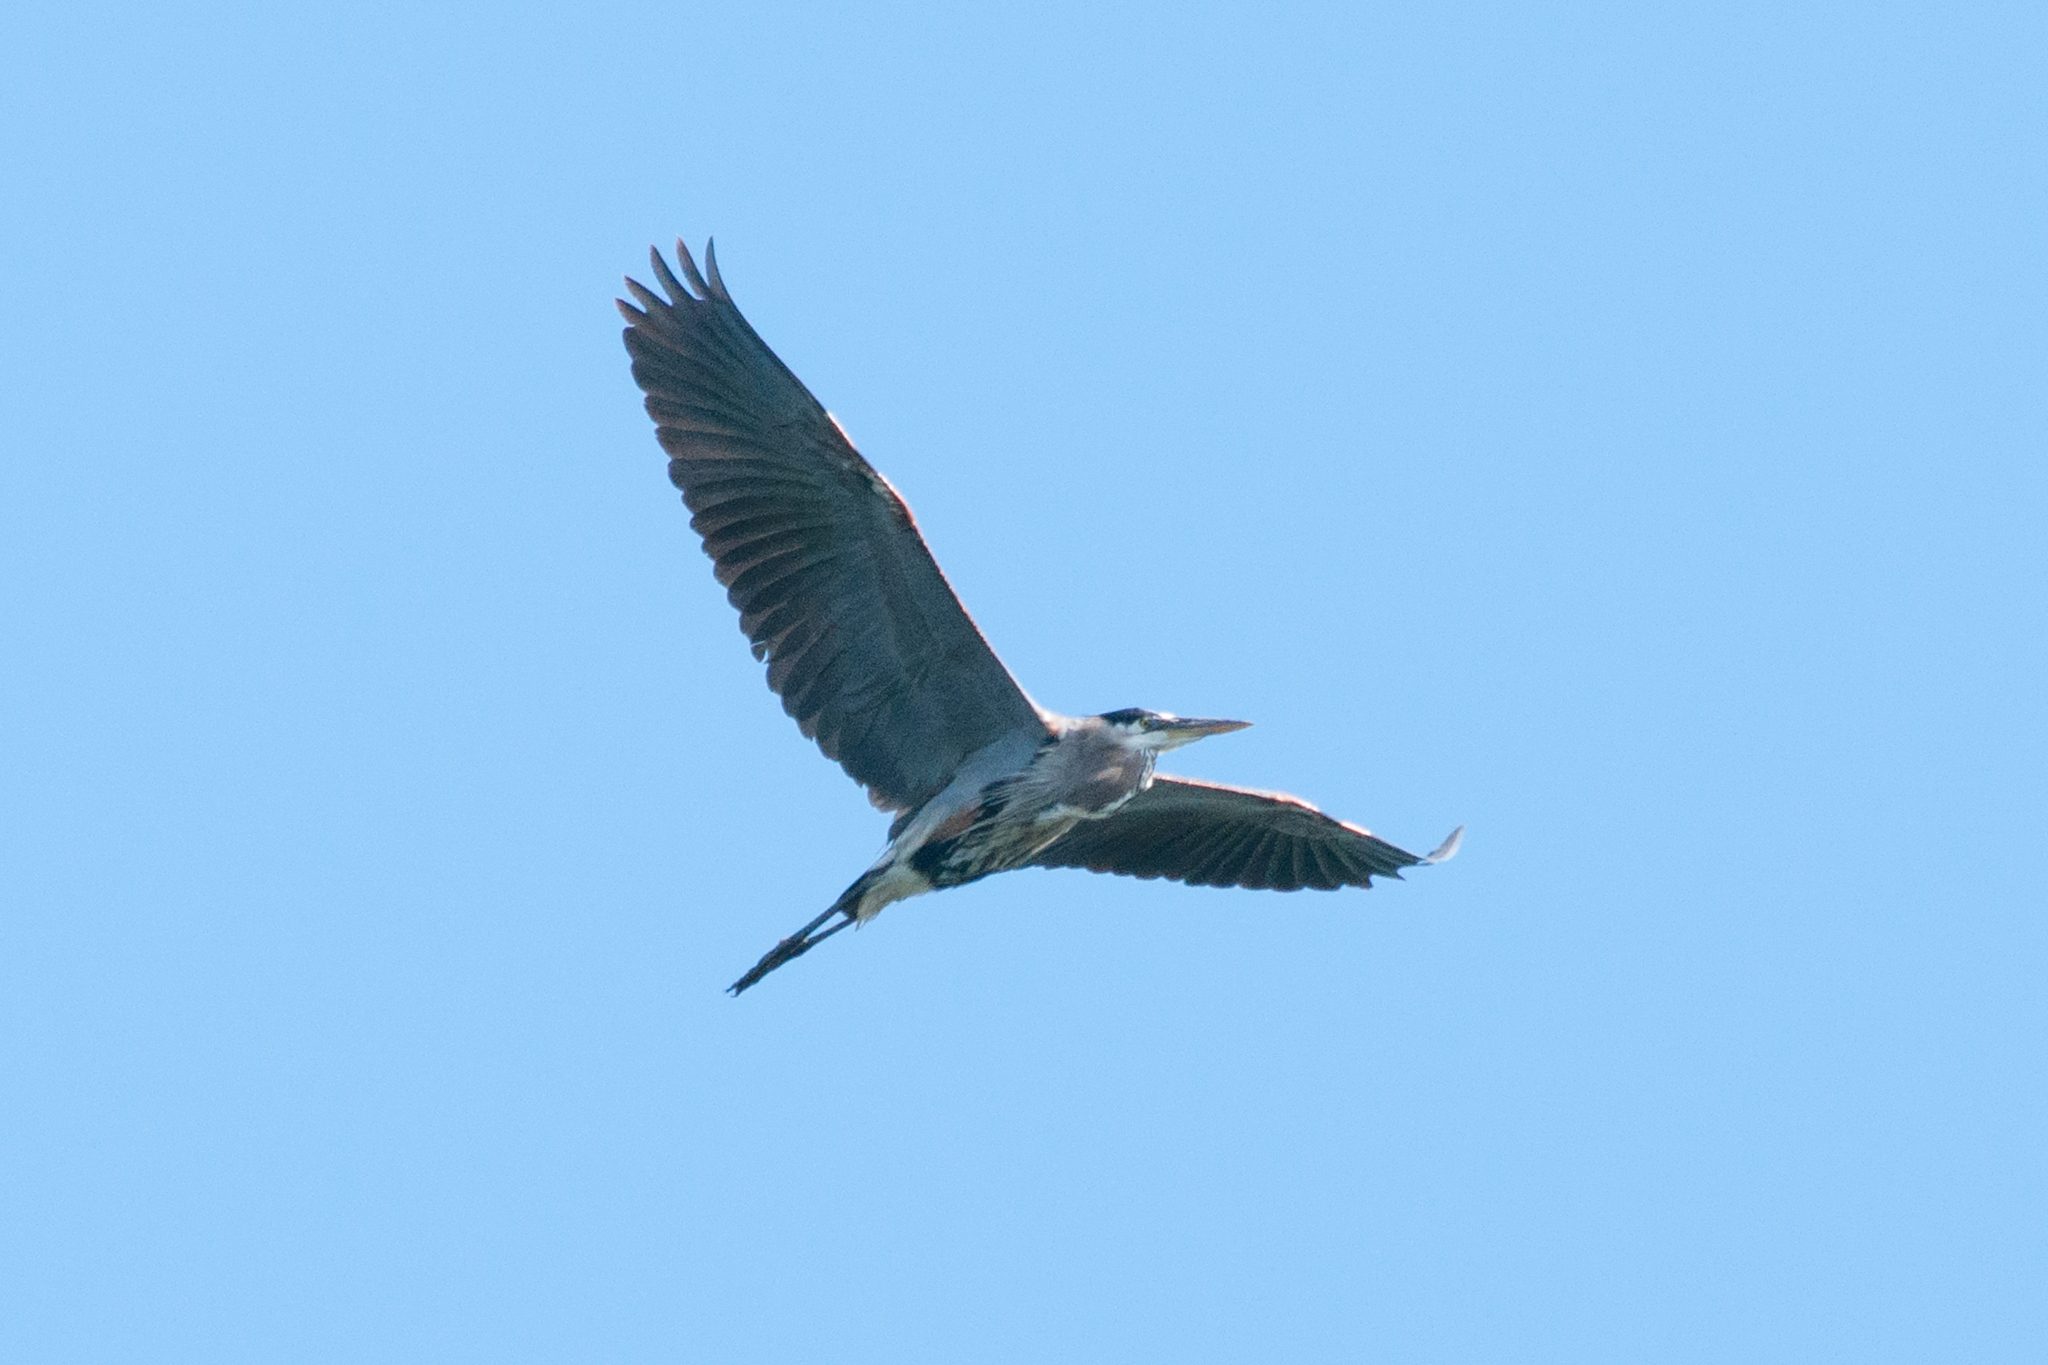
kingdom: Animalia
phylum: Chordata
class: Aves
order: Pelecaniformes
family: Ardeidae
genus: Ardea
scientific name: Ardea herodias
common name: Great blue heron
